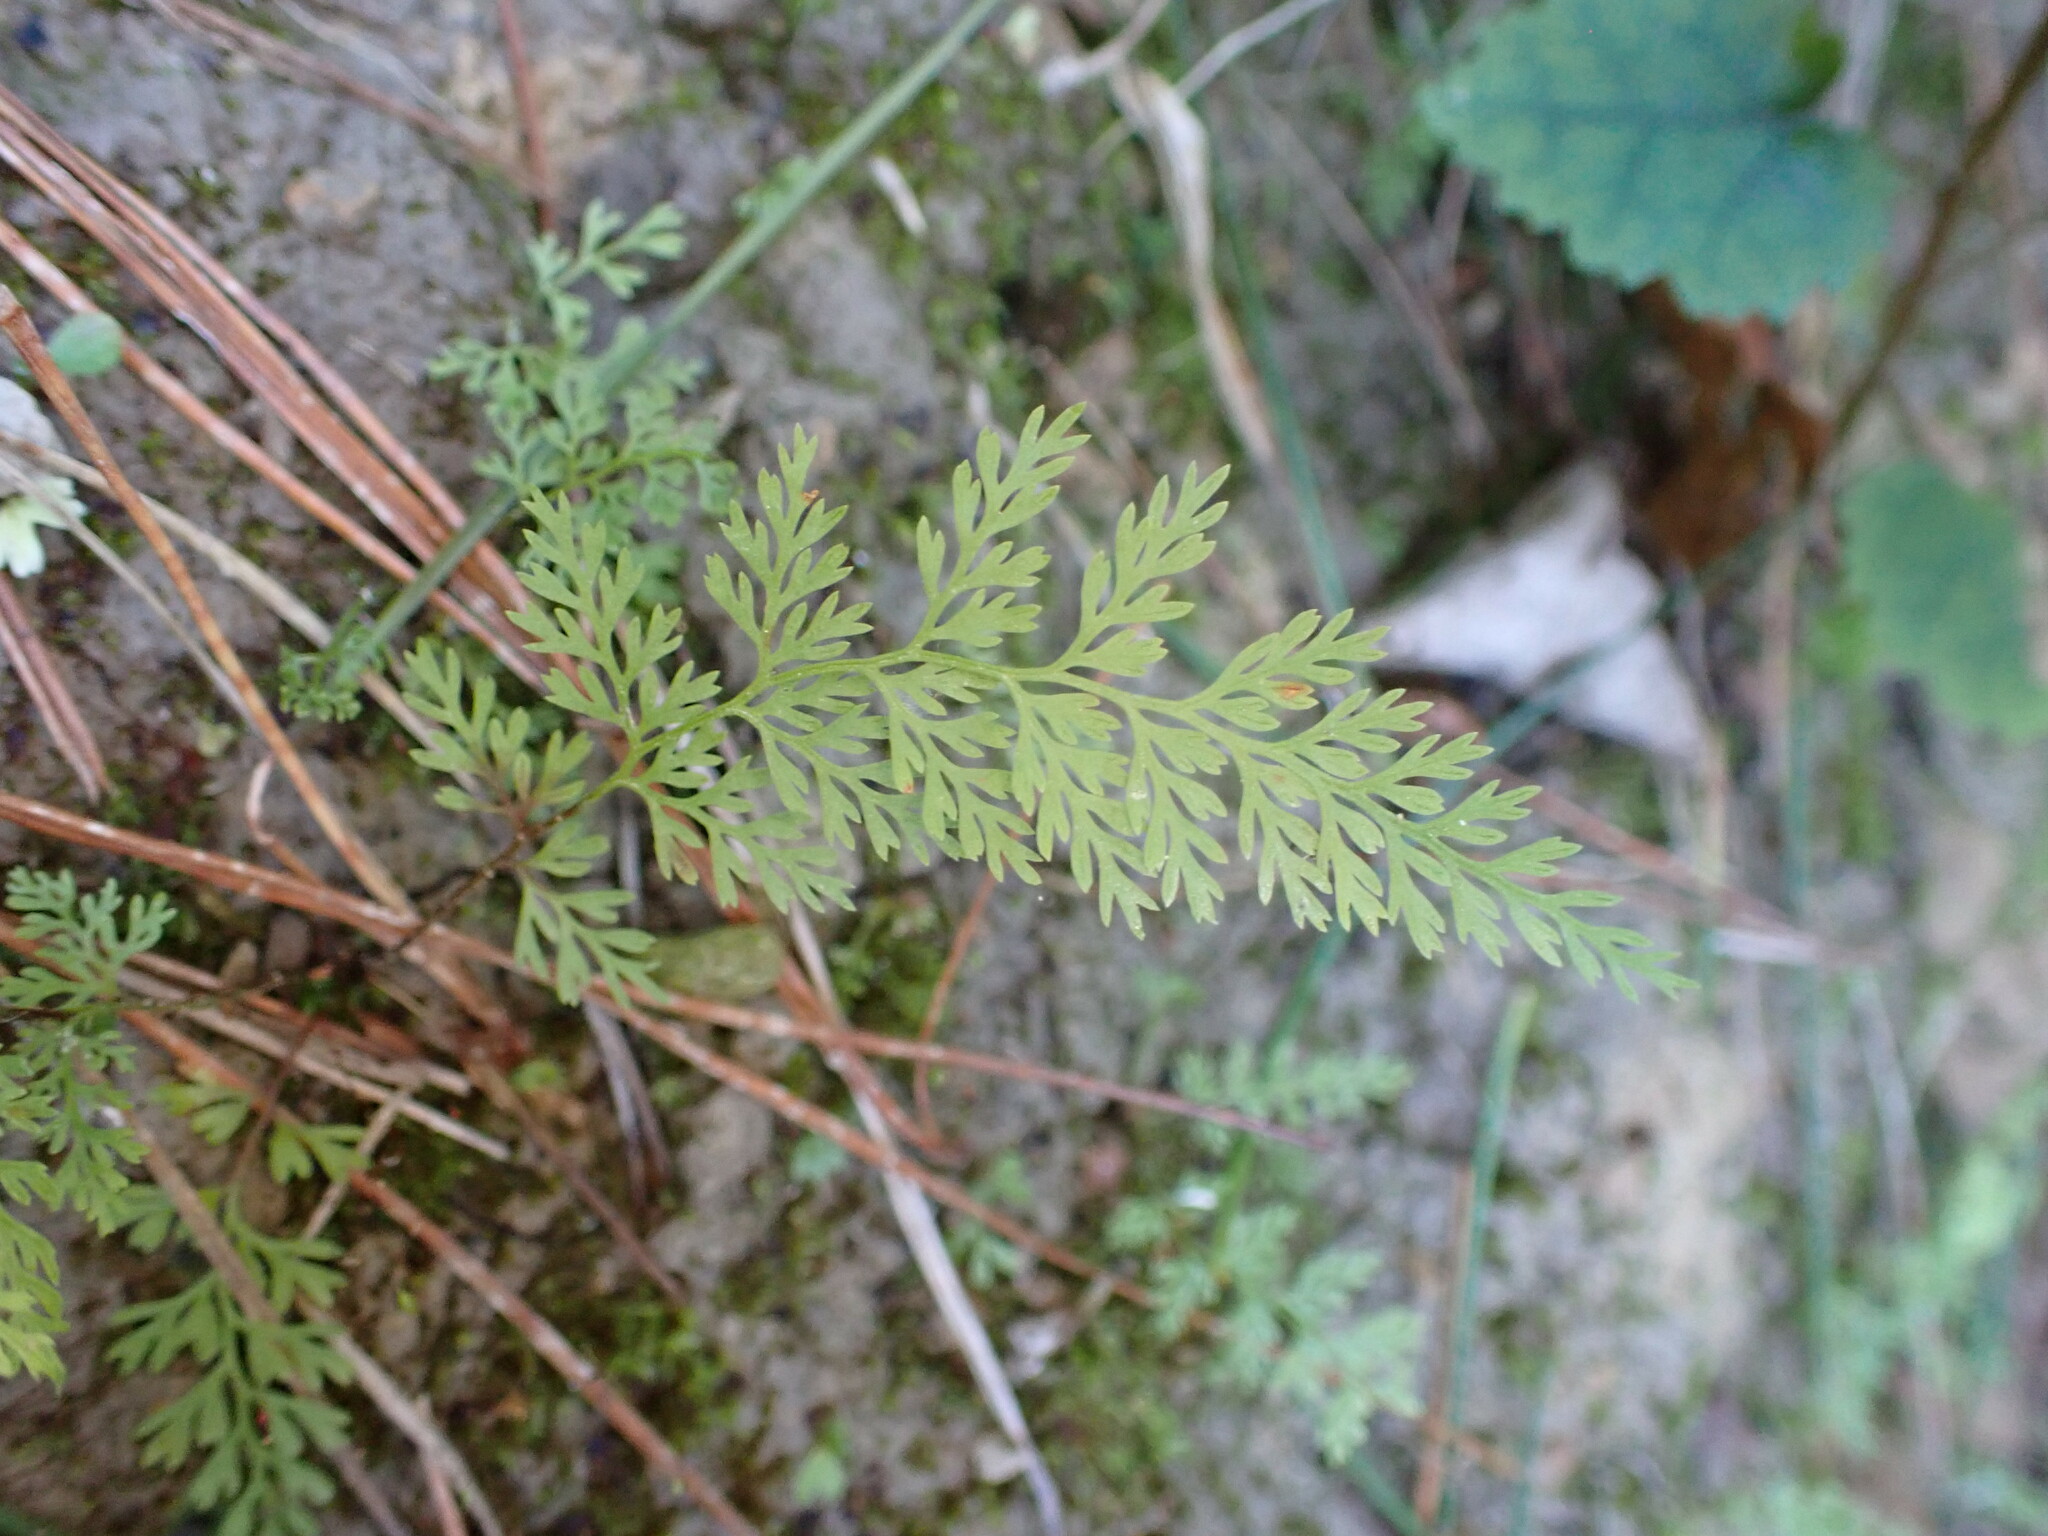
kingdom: Plantae
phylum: Tracheophyta
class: Polypodiopsida
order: Polypodiales
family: Dennstaedtiaceae
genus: Paesia
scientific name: Paesia scaberula
